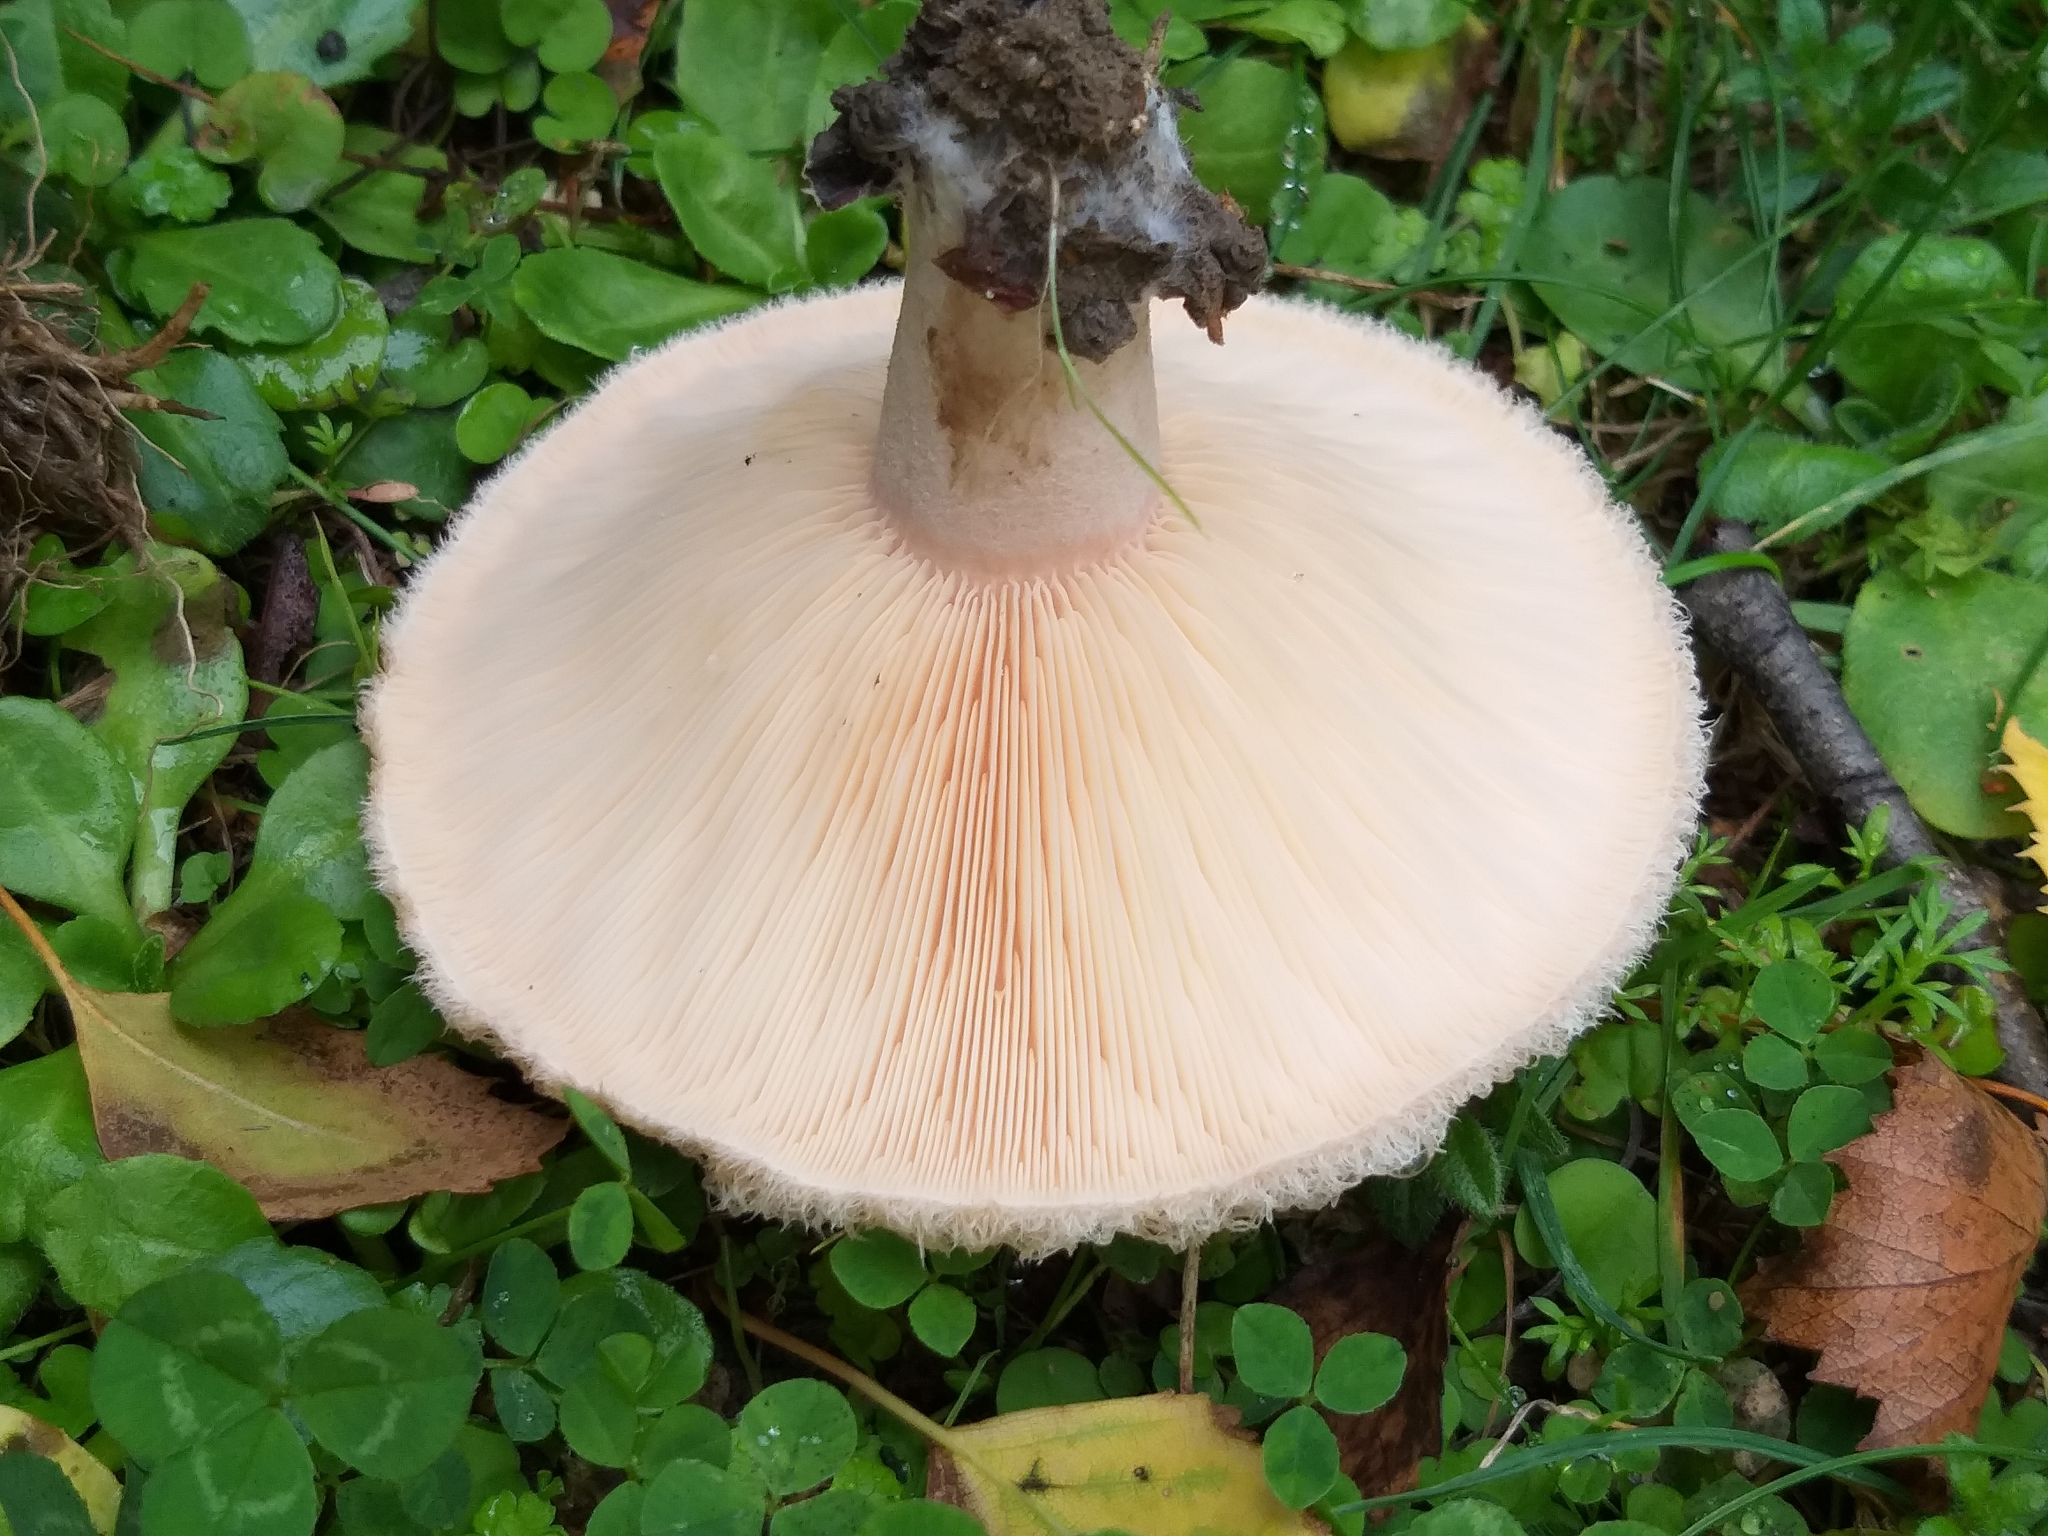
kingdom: Fungi
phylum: Basidiomycota
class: Agaricomycetes
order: Russulales
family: Russulaceae
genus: Lactarius
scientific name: Lactarius pubescens
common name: Bearded milkcap
